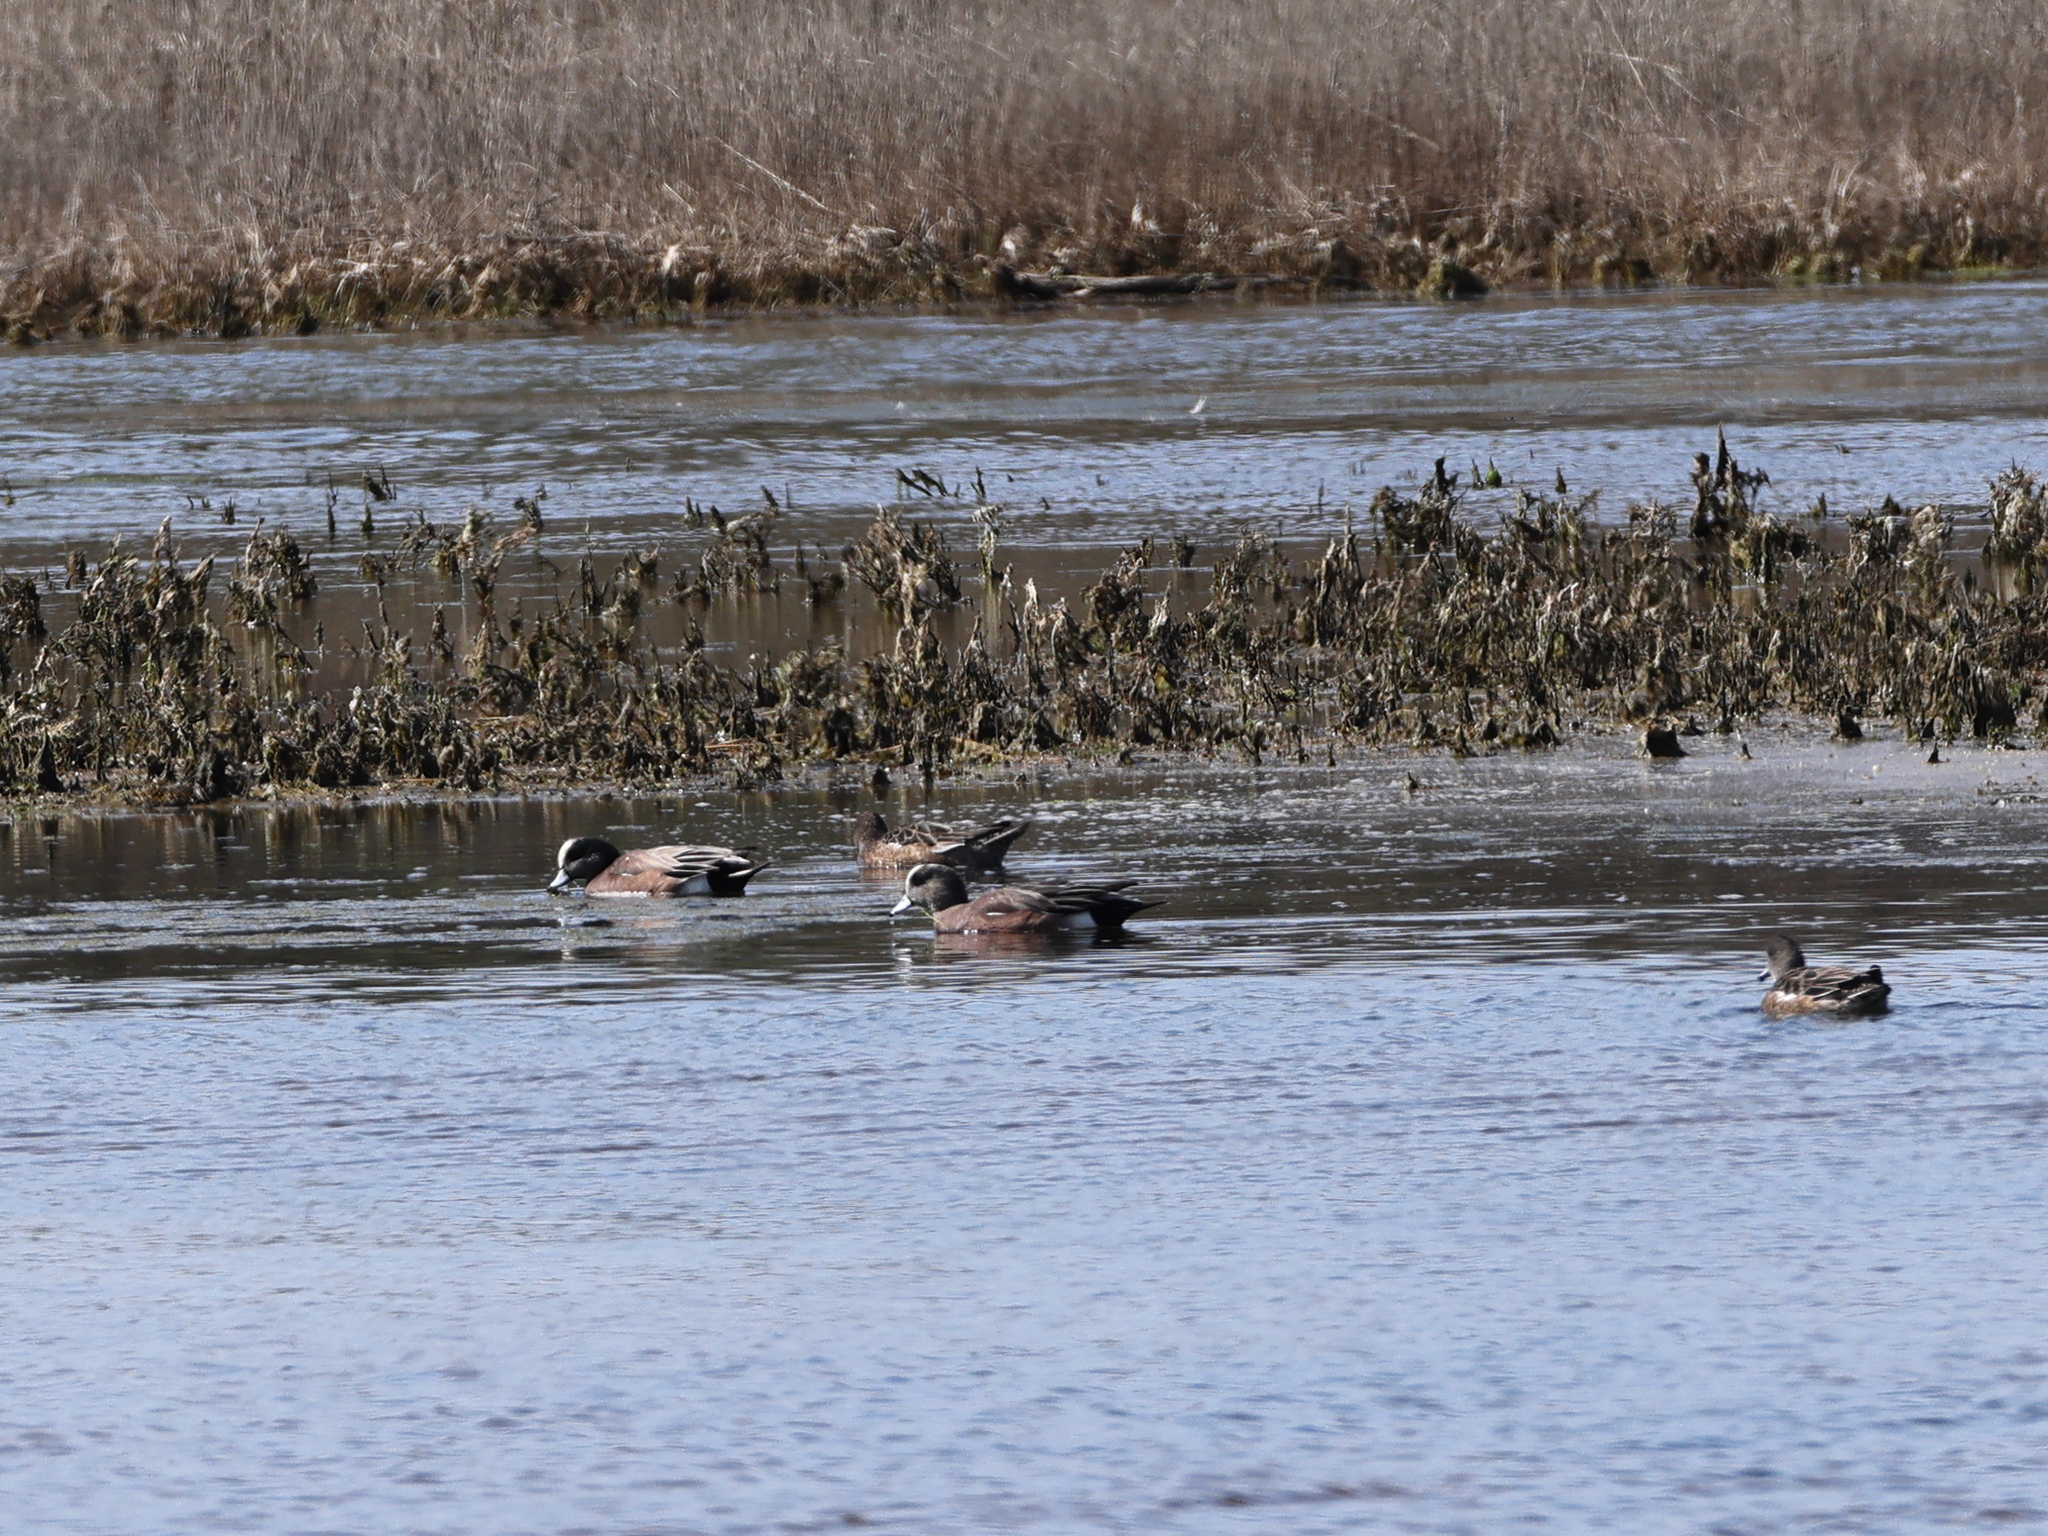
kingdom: Animalia
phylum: Chordata
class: Aves
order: Anseriformes
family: Anatidae
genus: Mareca
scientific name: Mareca americana
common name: American wigeon
